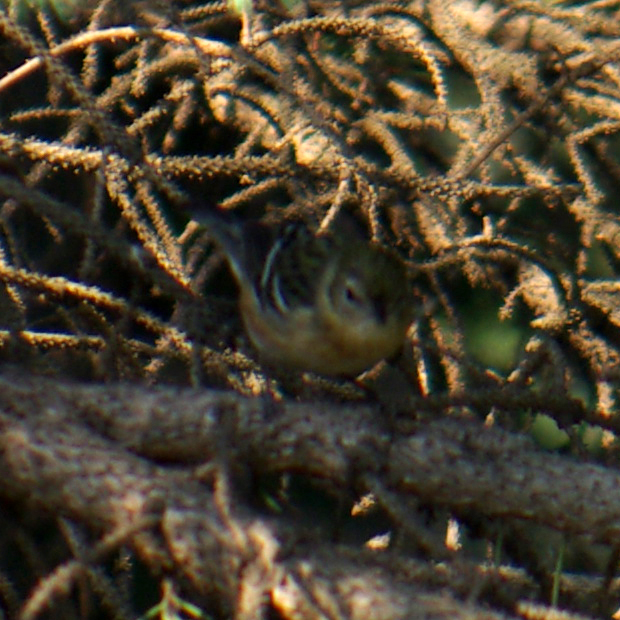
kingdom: Animalia
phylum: Chordata
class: Aves
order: Passeriformes
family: Parulidae
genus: Setophaga
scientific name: Setophaga castanea
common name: Bay-breasted warbler
